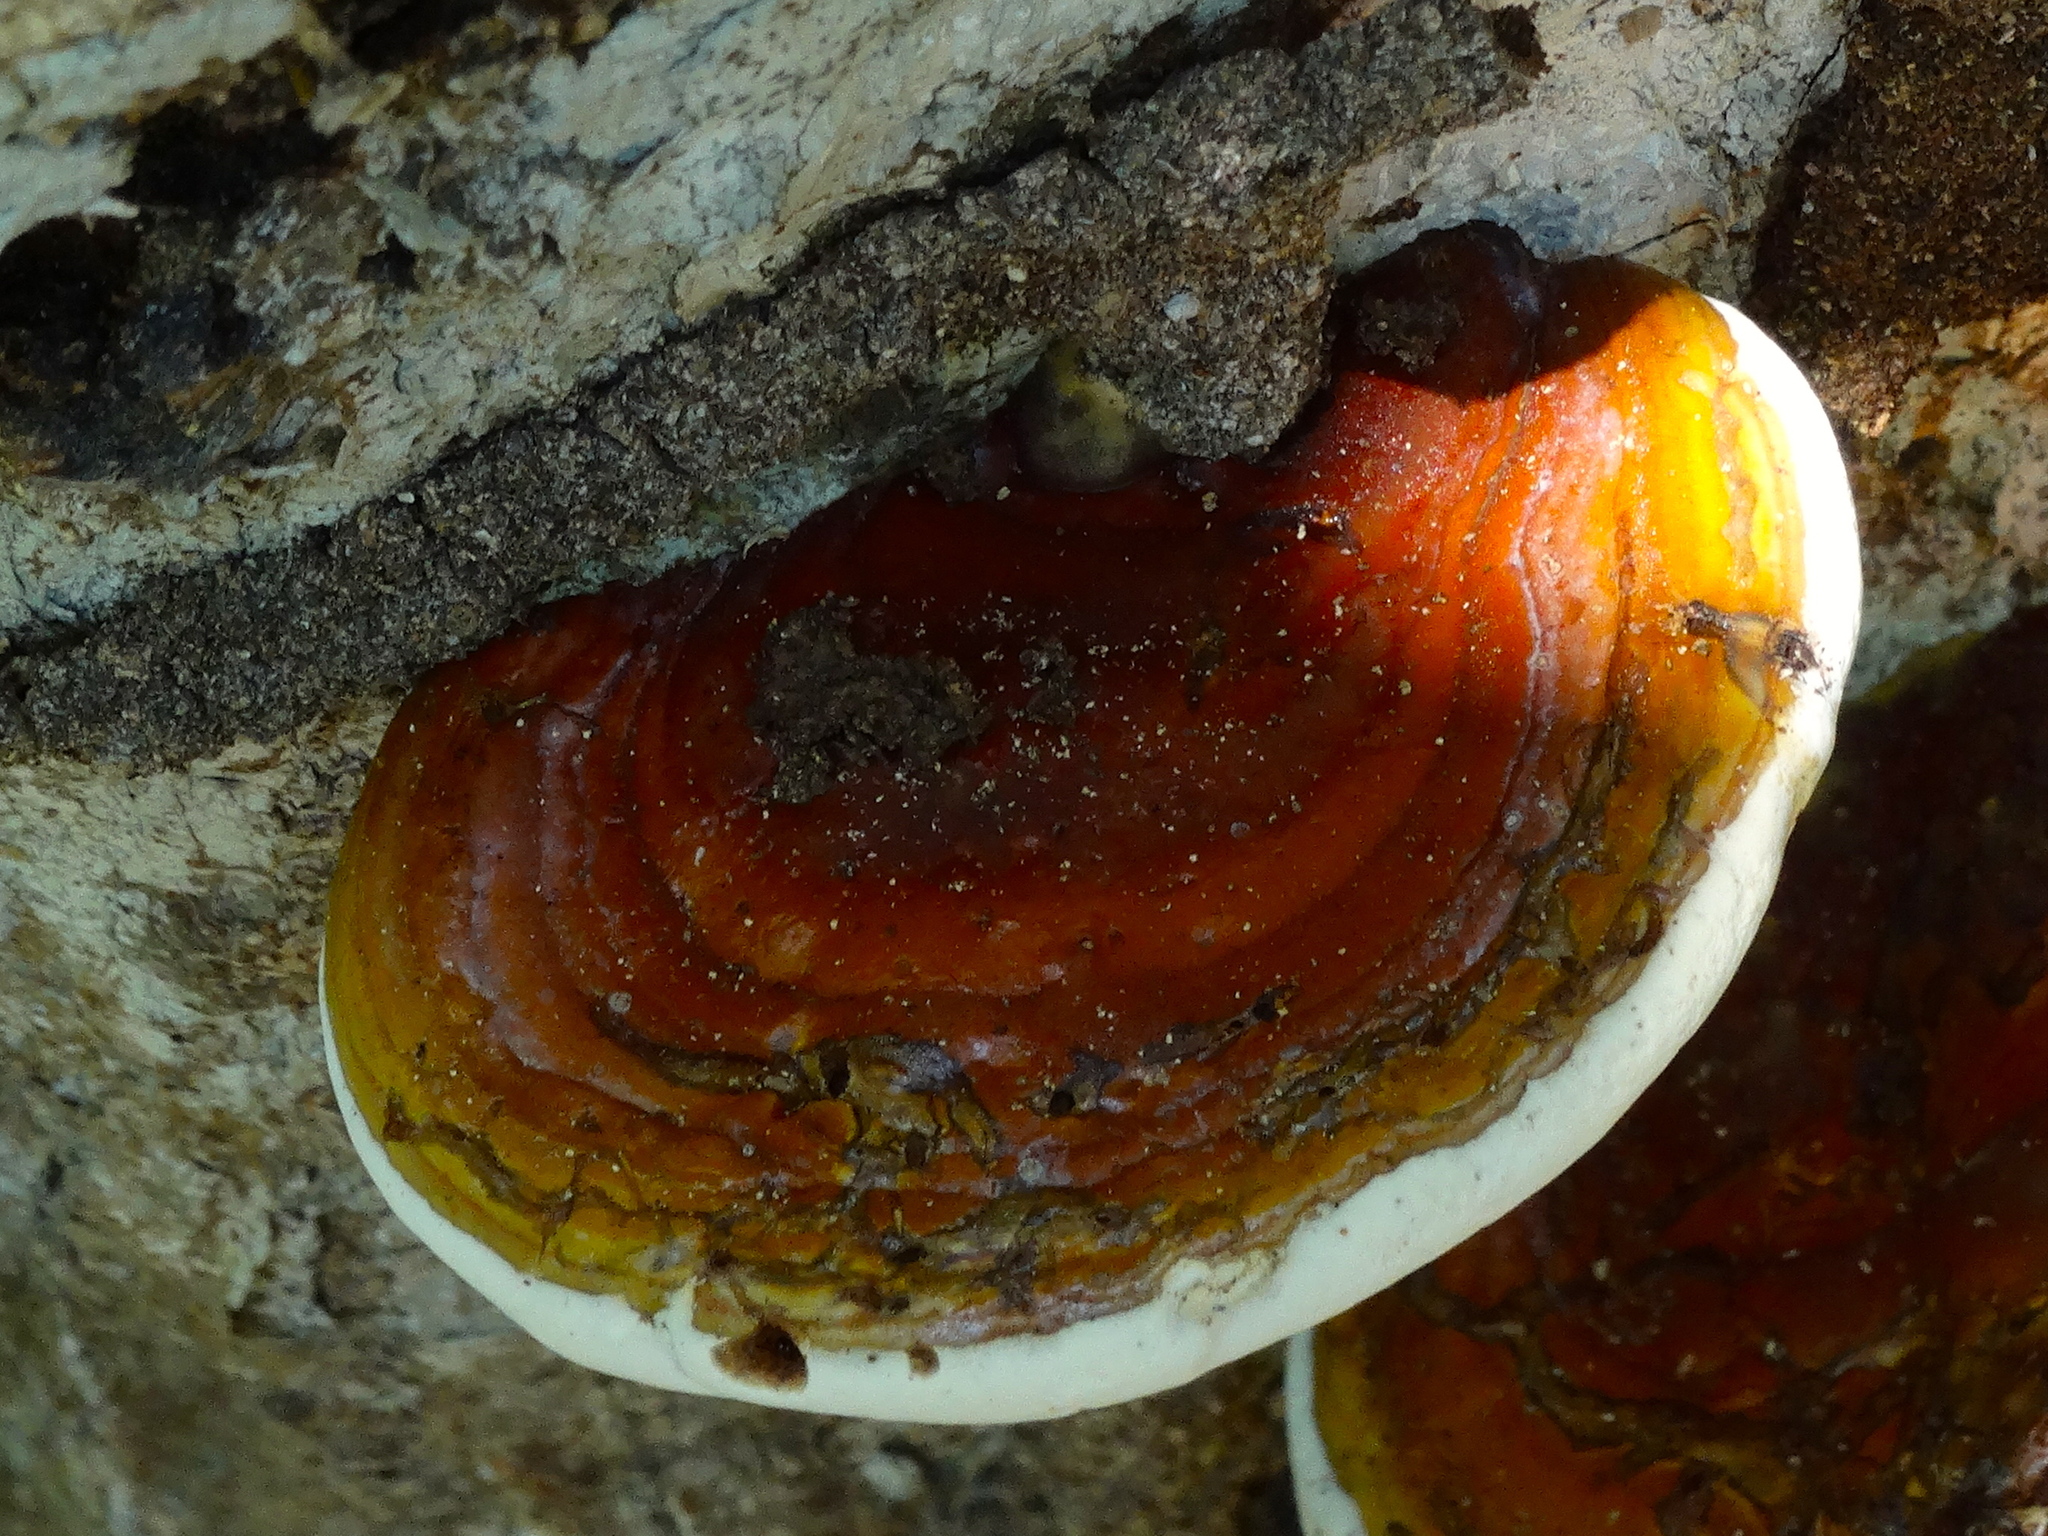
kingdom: Fungi
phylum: Basidiomycota
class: Agaricomycetes
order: Polyporales
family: Polyporaceae
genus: Ganoderma
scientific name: Ganoderma
